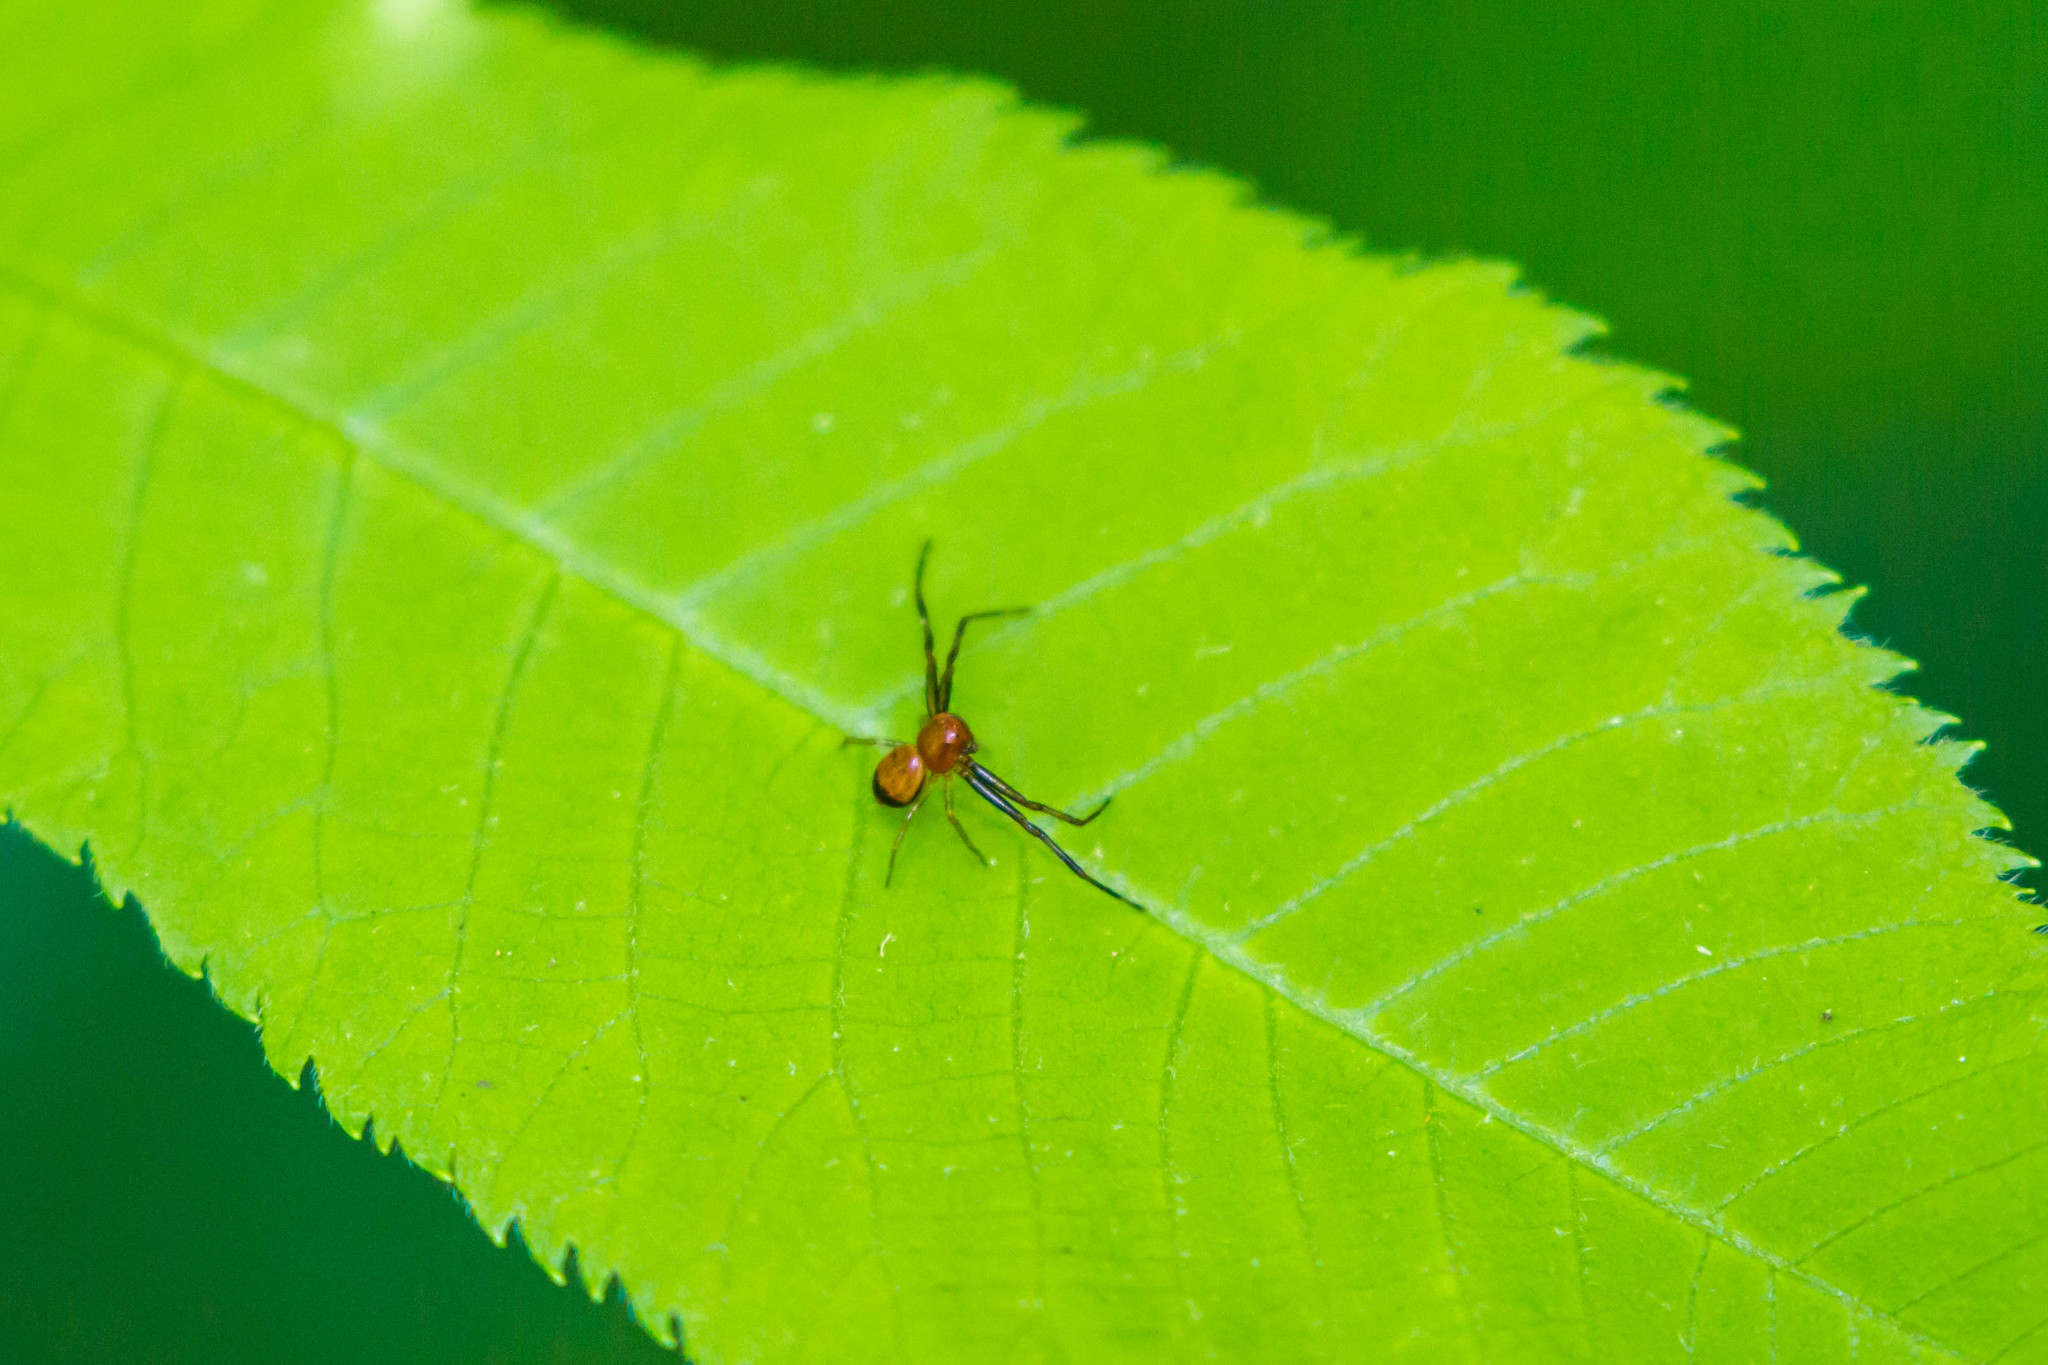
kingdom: Animalia
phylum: Arthropoda
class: Arachnida
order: Araneae
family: Thomisidae
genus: Synema
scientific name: Synema parvulum
